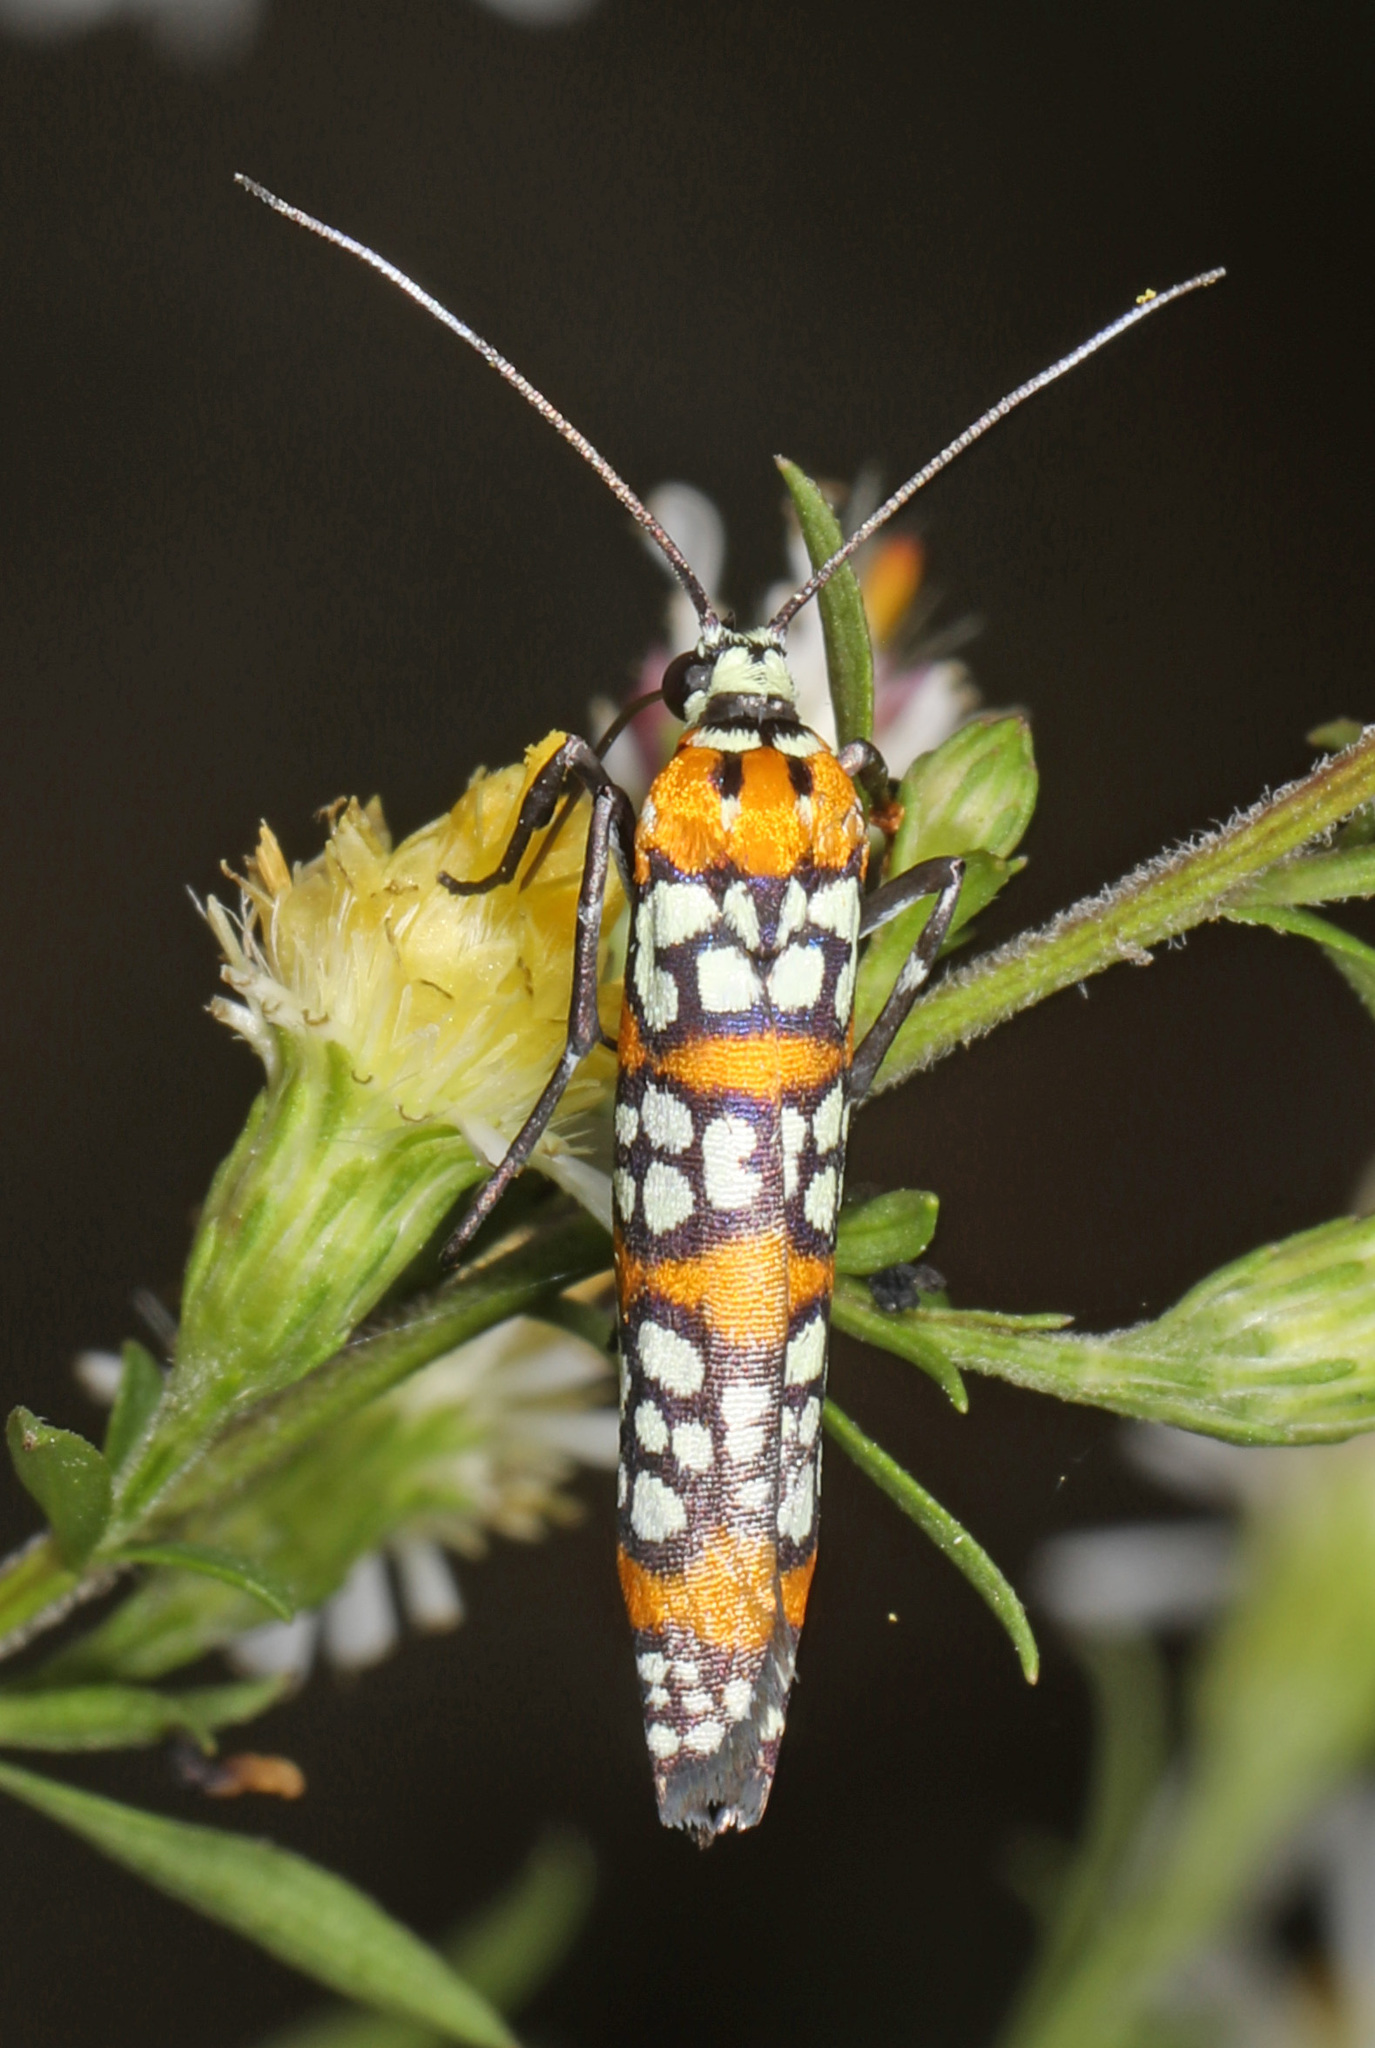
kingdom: Animalia
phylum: Arthropoda
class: Insecta
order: Lepidoptera
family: Attevidae
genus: Atteva
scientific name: Atteva punctella
